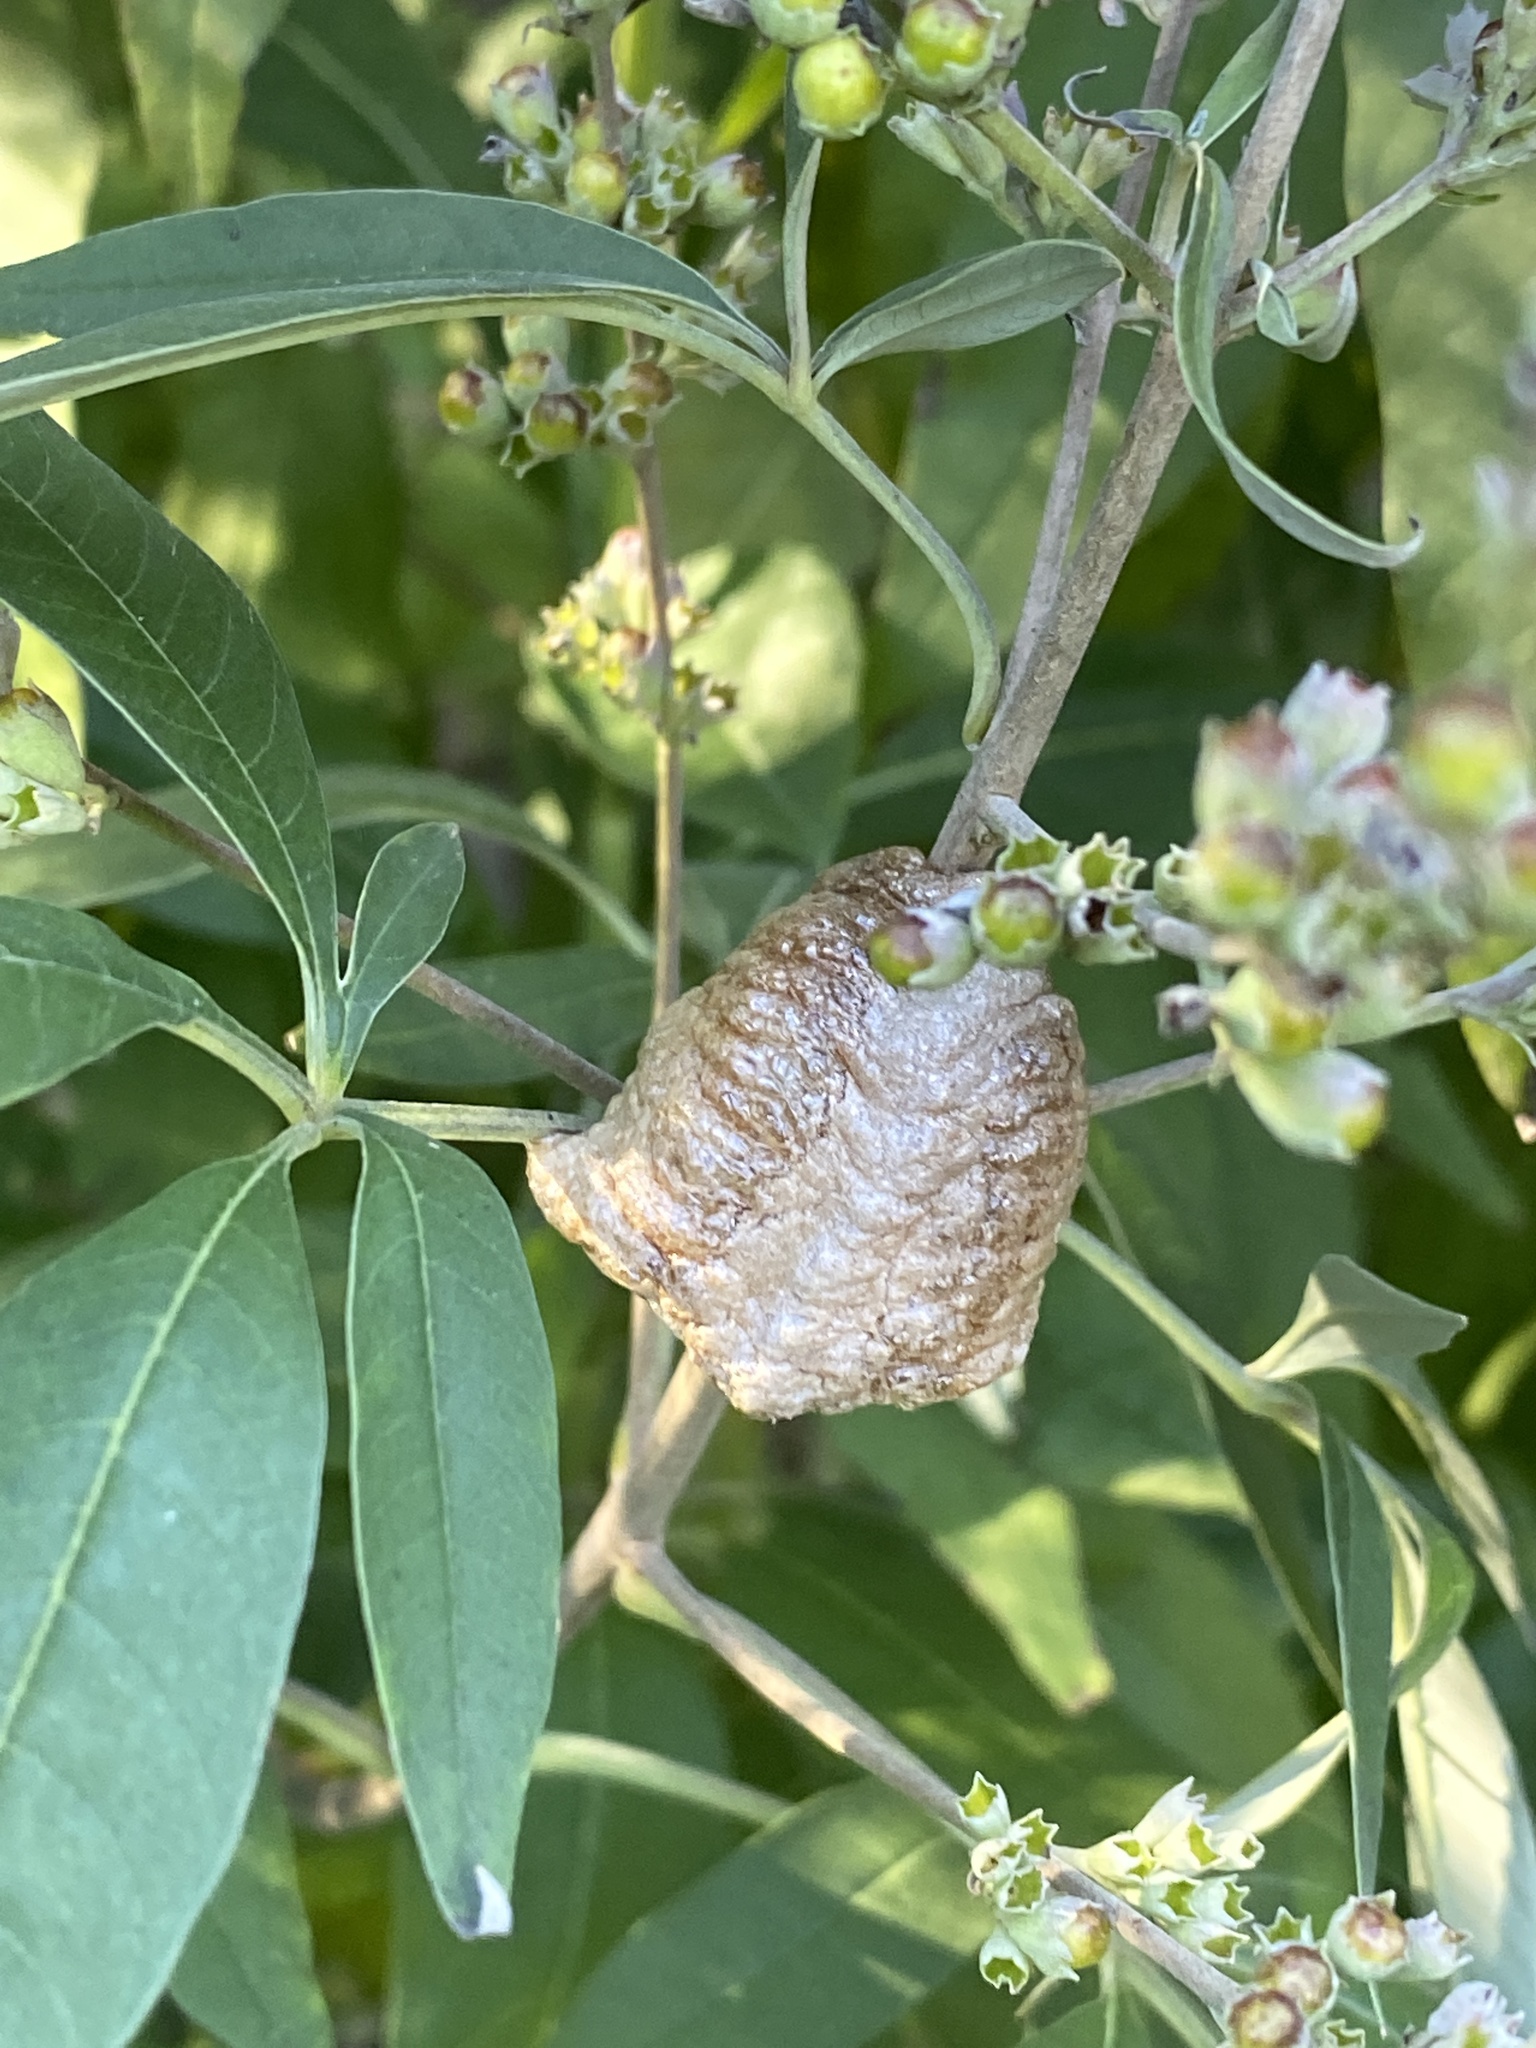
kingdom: Animalia
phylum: Arthropoda
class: Insecta
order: Mantodea
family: Mantidae
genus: Tenodera
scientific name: Tenodera sinensis
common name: Chinese mantis
